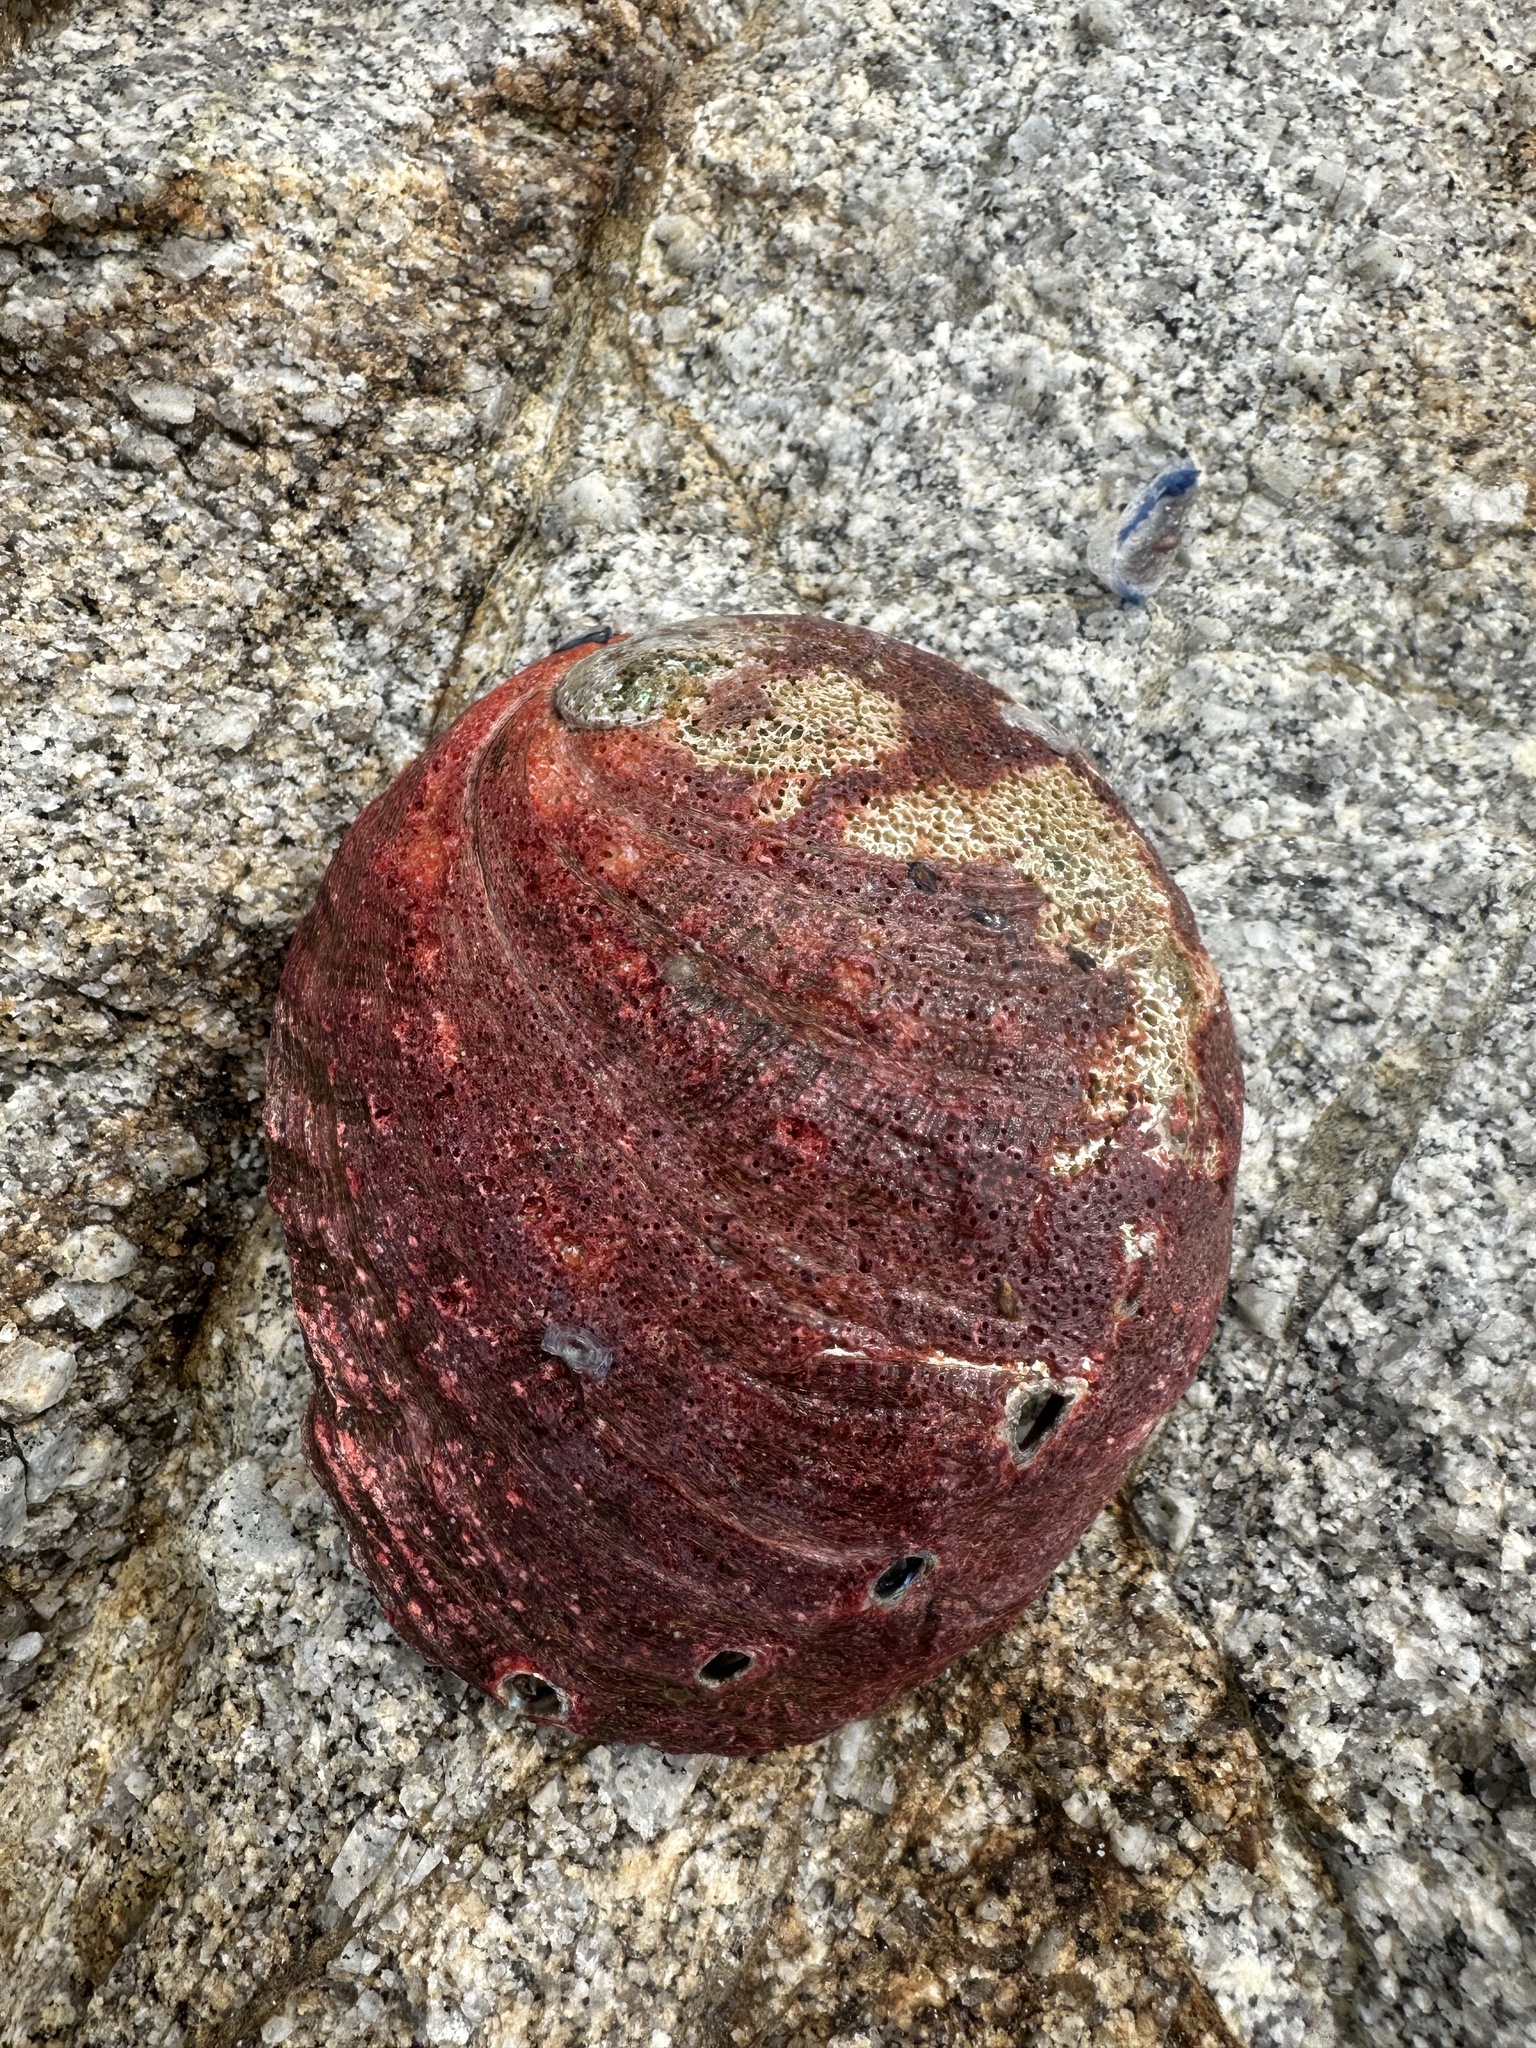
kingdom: Animalia
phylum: Mollusca
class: Gastropoda
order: Lepetellida
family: Haliotidae
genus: Haliotis
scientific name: Haliotis rufescens
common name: Red abalone
